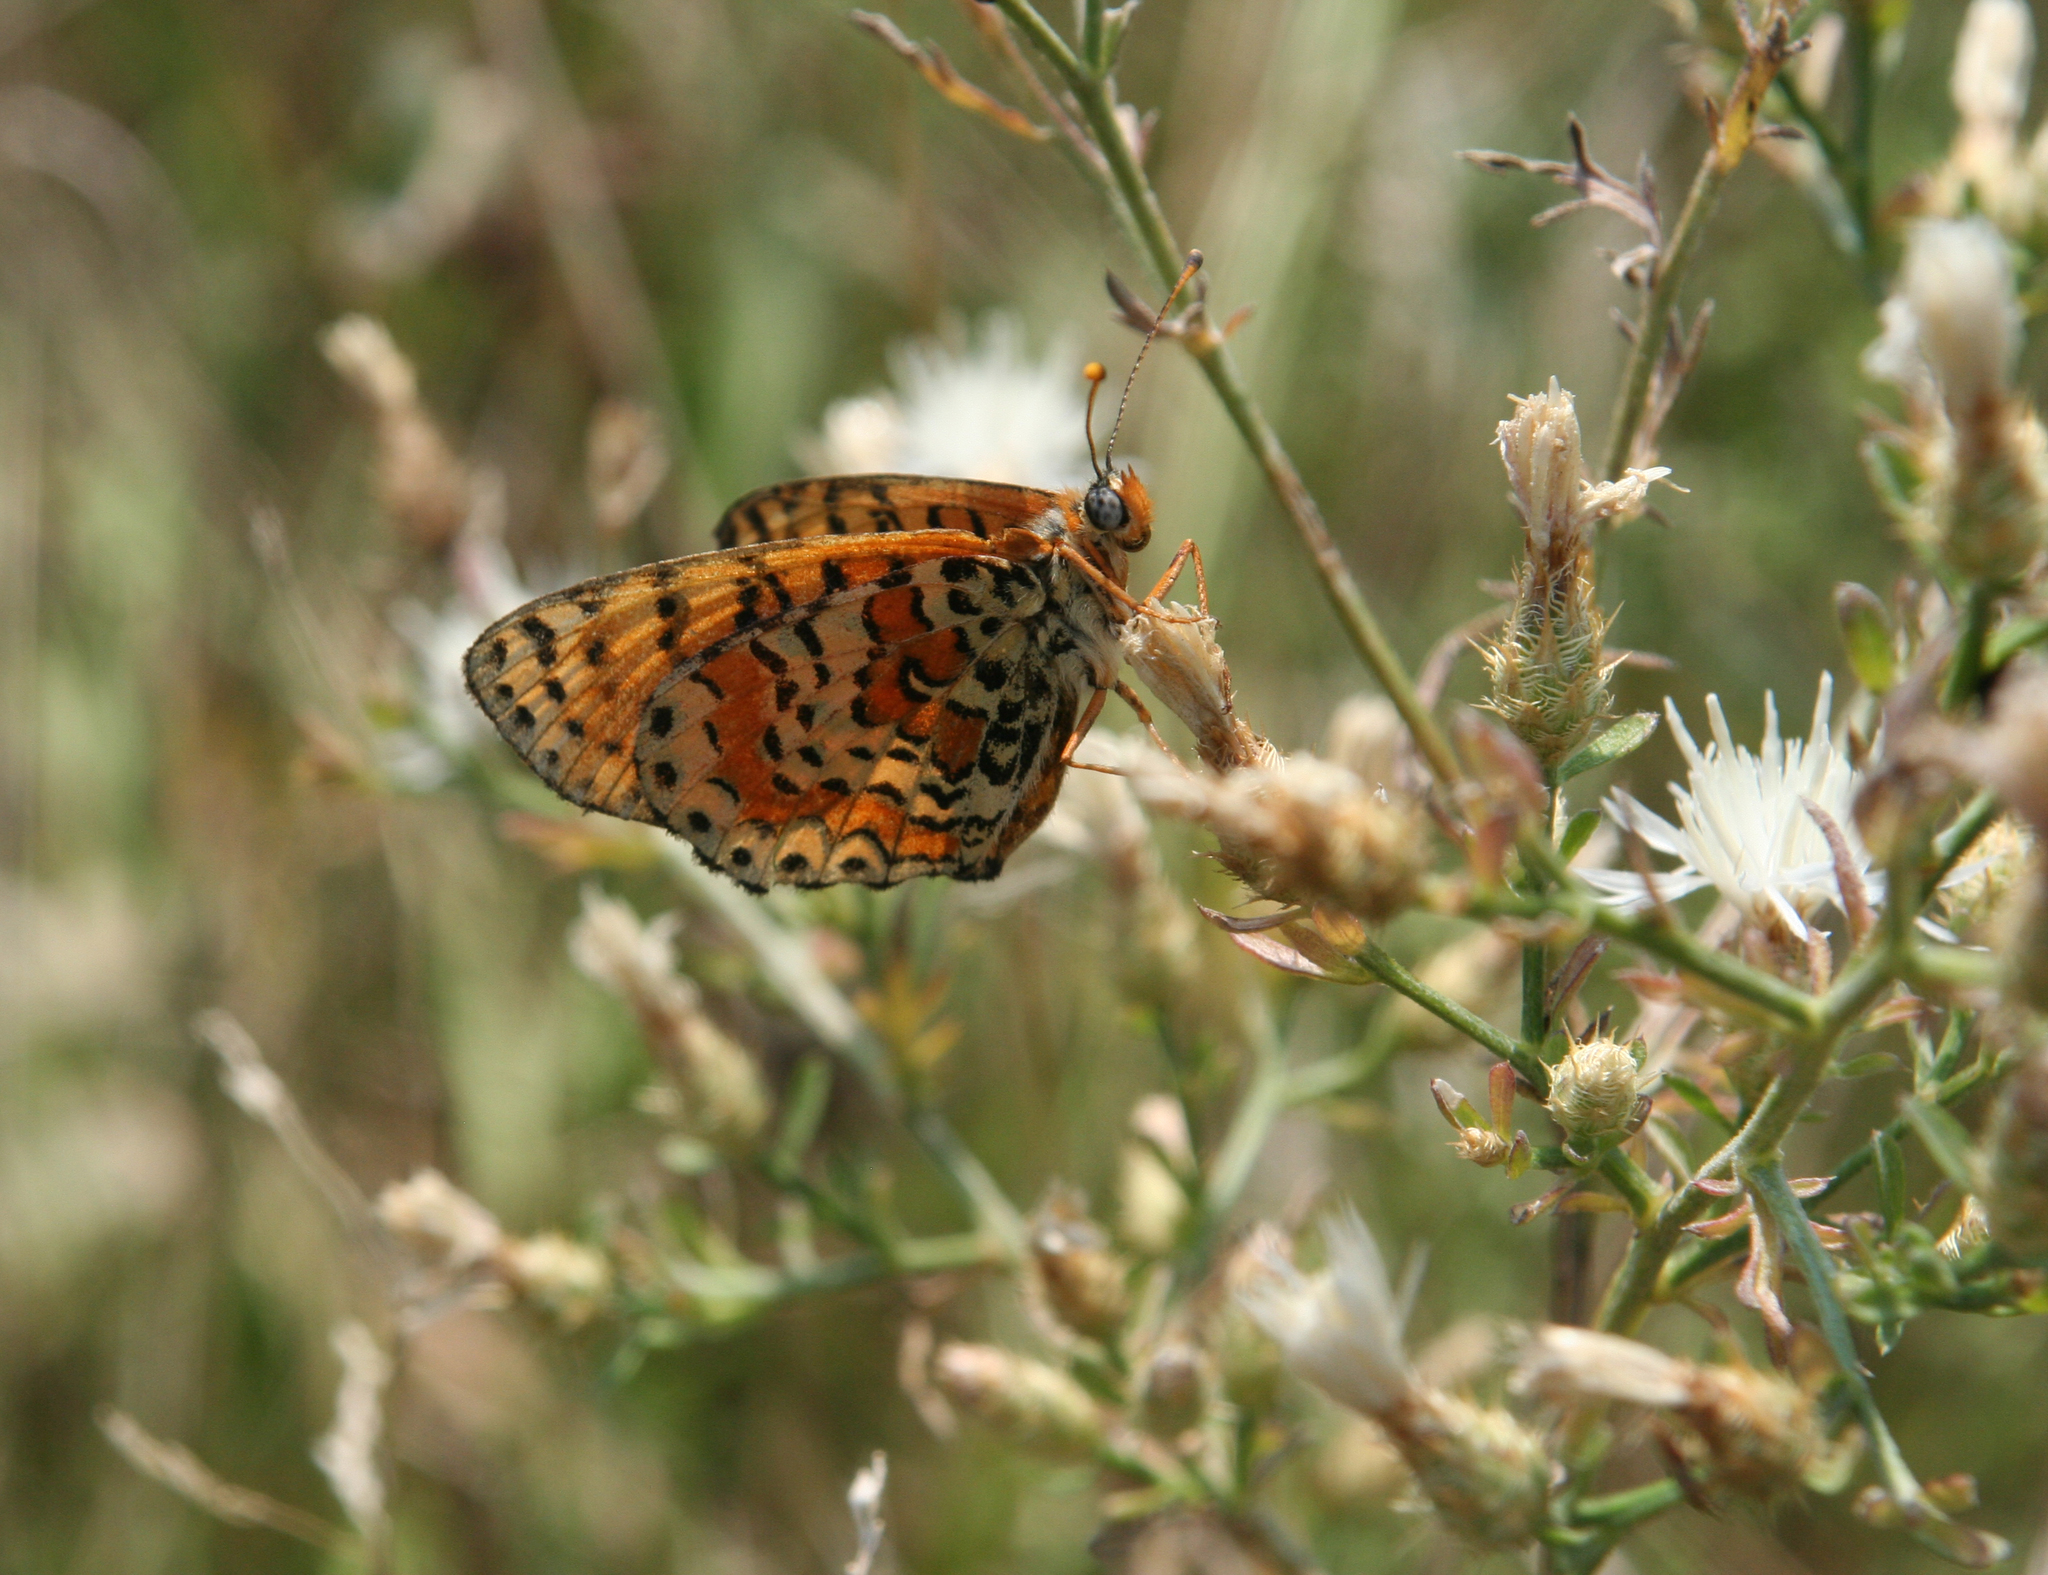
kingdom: Animalia
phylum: Arthropoda
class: Insecta
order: Lepidoptera
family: Nymphalidae
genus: Melitaea
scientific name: Melitaea didyma
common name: Spotted fritillary
